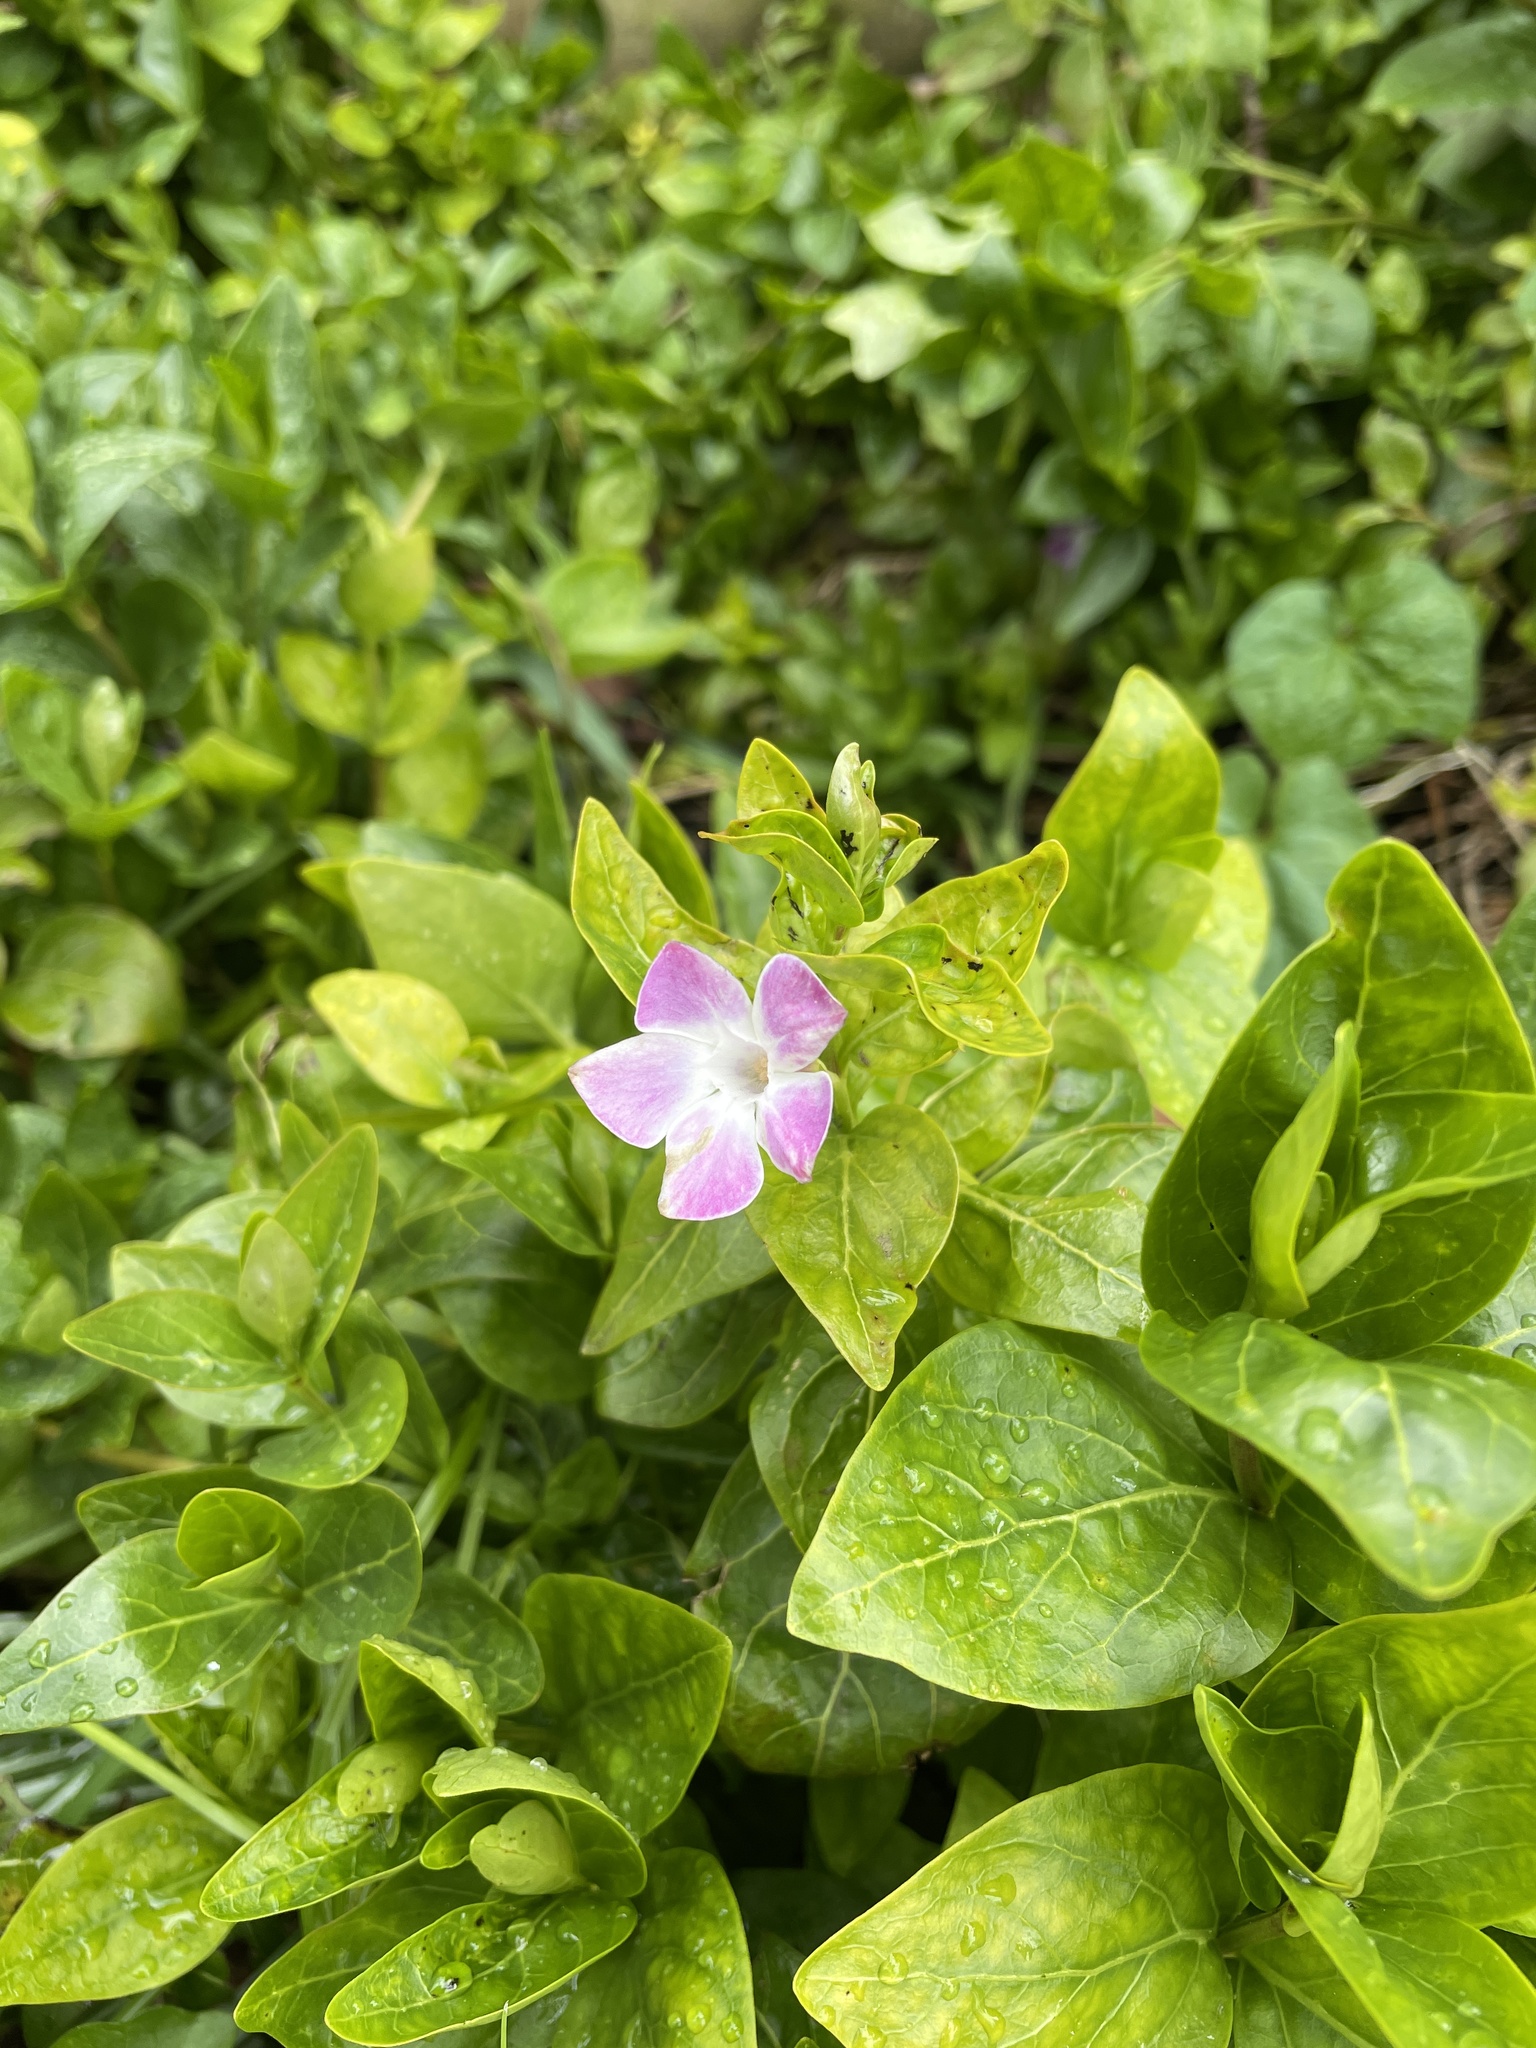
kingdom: Plantae
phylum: Tracheophyta
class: Magnoliopsida
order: Gentianales
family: Apocynaceae
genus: Vinca
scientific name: Vinca difformis
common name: Intermediate periwinkle
